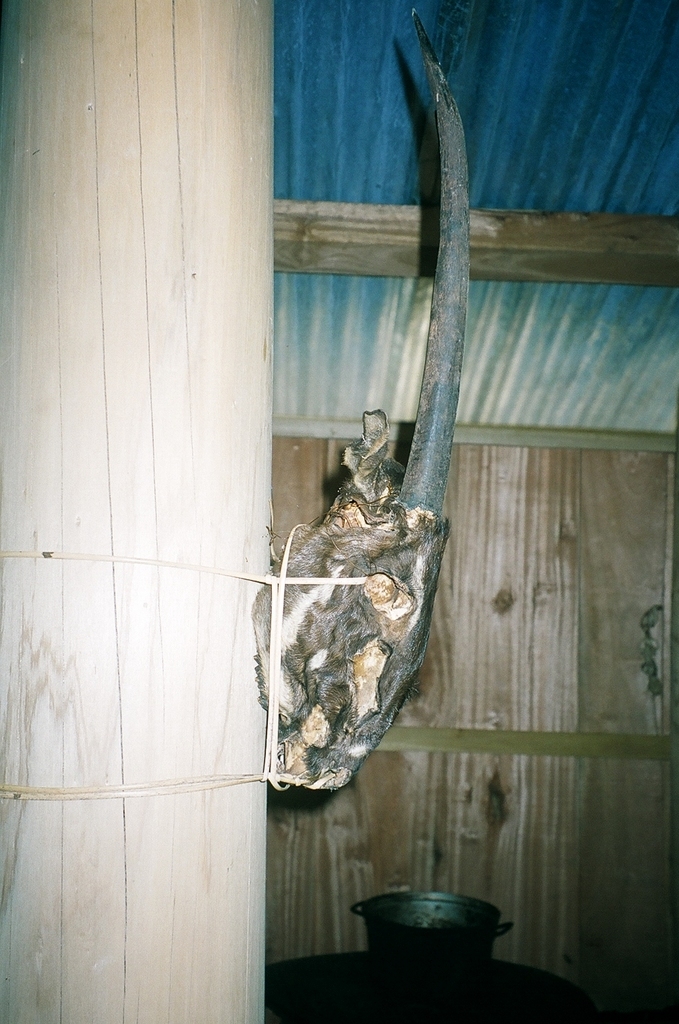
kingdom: Animalia
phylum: Chordata
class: Mammalia
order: Artiodactyla
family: Bovidae
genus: Pseudoryx
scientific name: Pseudoryx nghetinhensis
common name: Saola
